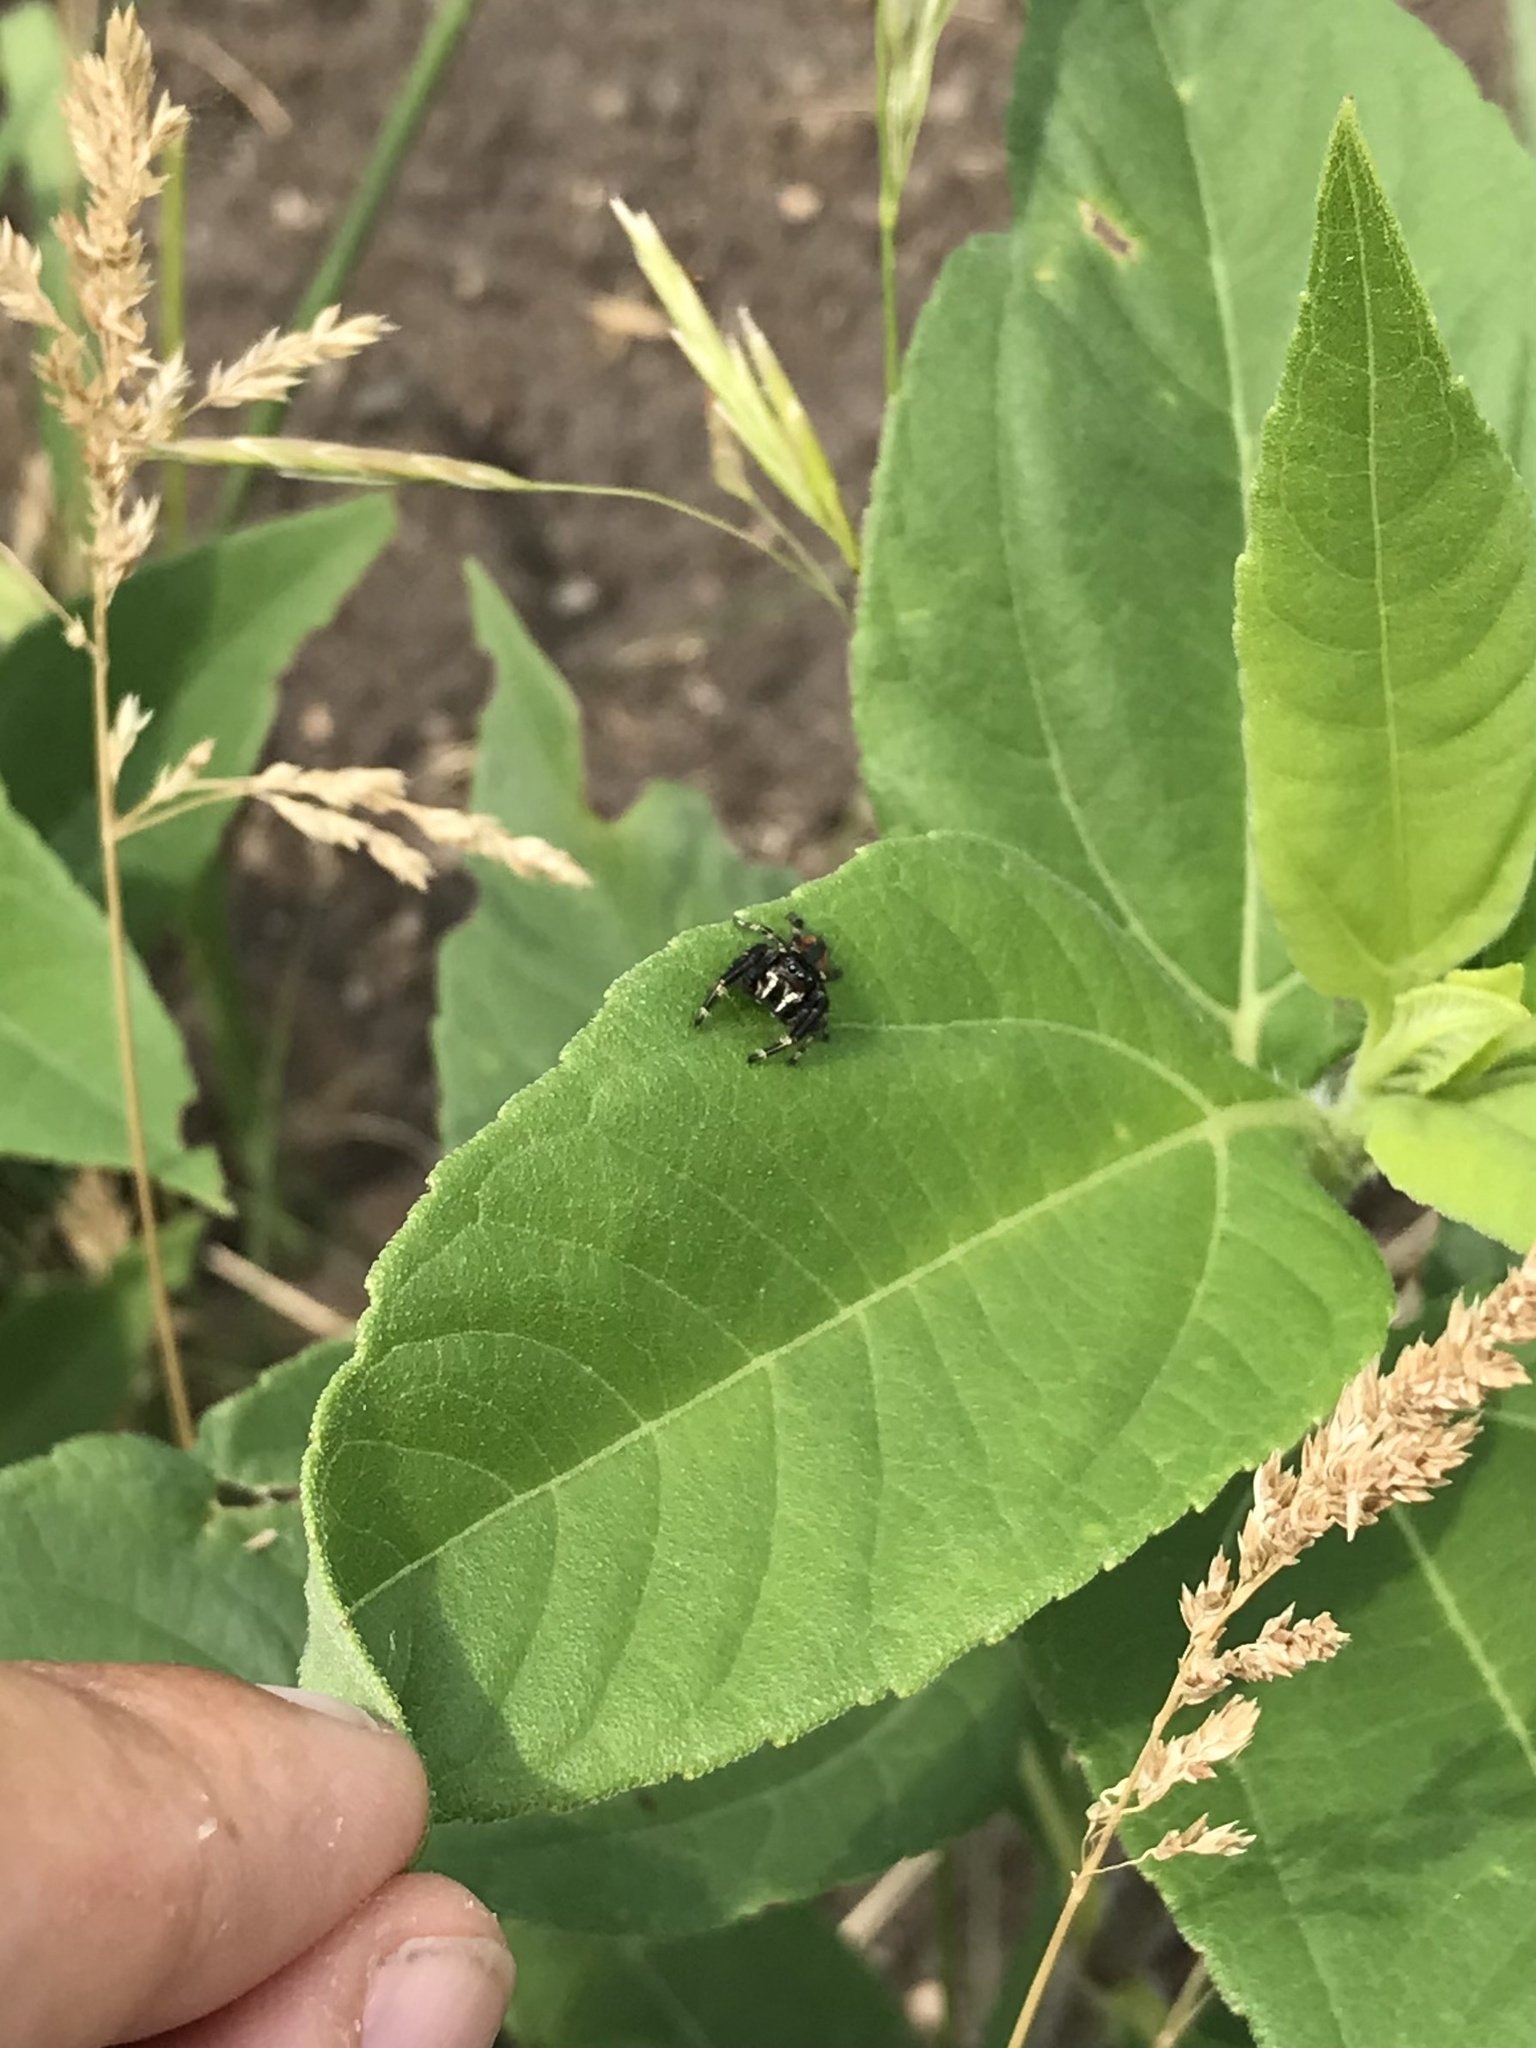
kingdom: Animalia
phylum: Arthropoda
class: Arachnida
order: Araneae
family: Salticidae
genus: Phidippus
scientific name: Phidippus clarus
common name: Brilliant jumping spider
